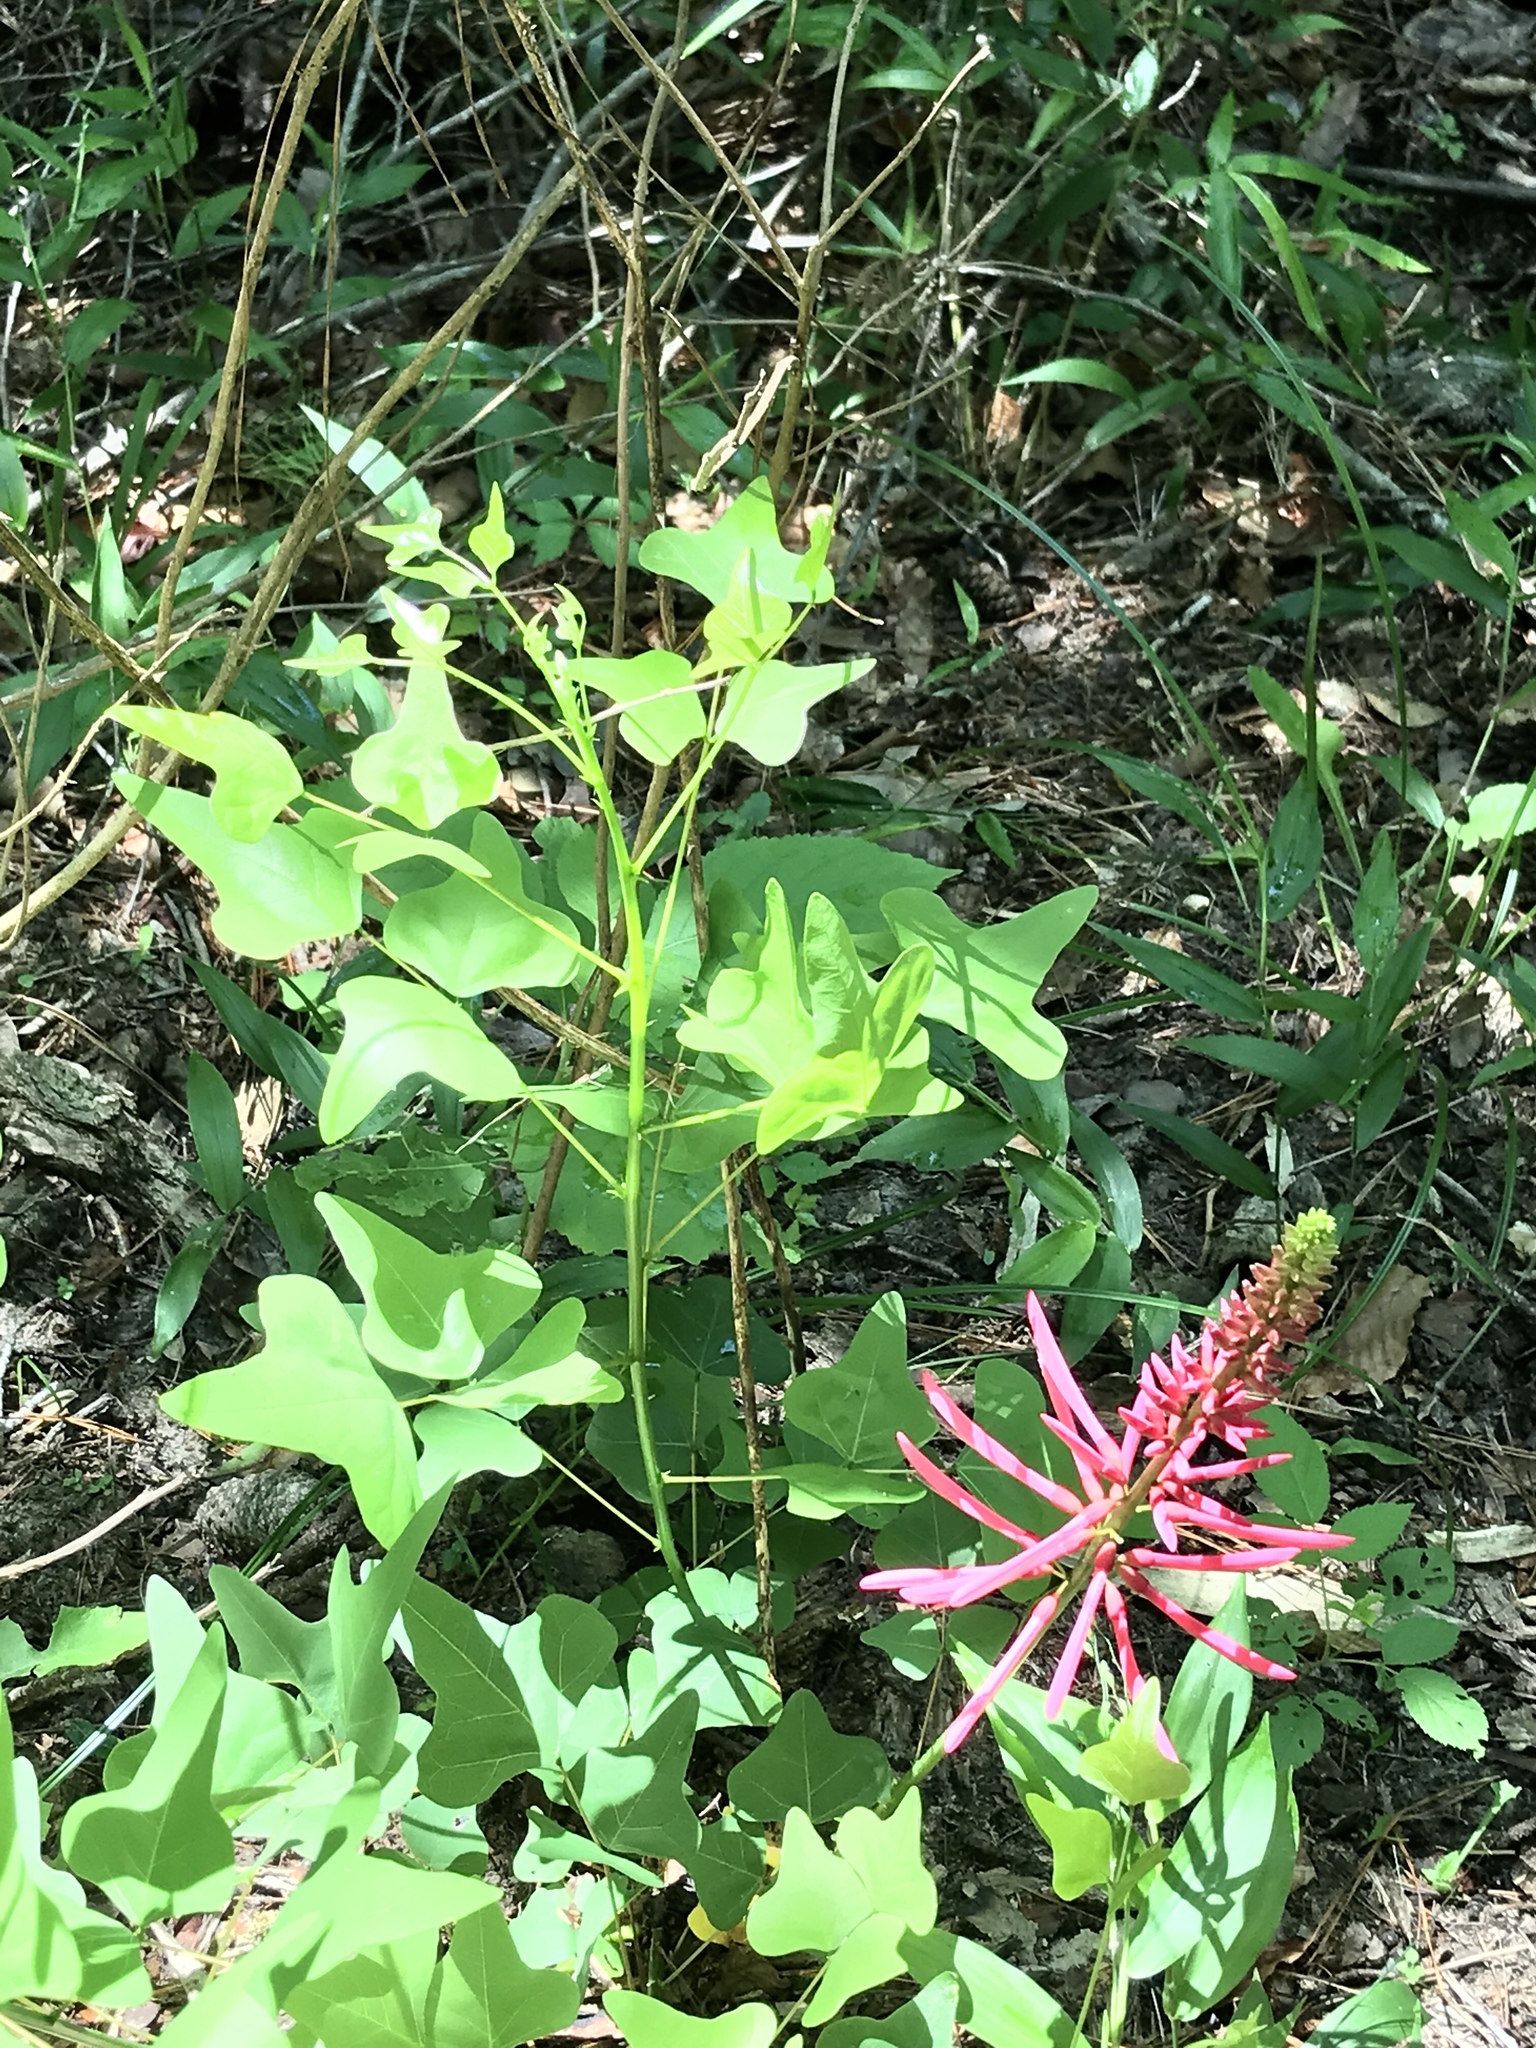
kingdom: Plantae
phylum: Tracheophyta
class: Magnoliopsida
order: Fabales
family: Fabaceae
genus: Erythrina
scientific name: Erythrina herbacea
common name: Coral-bean
